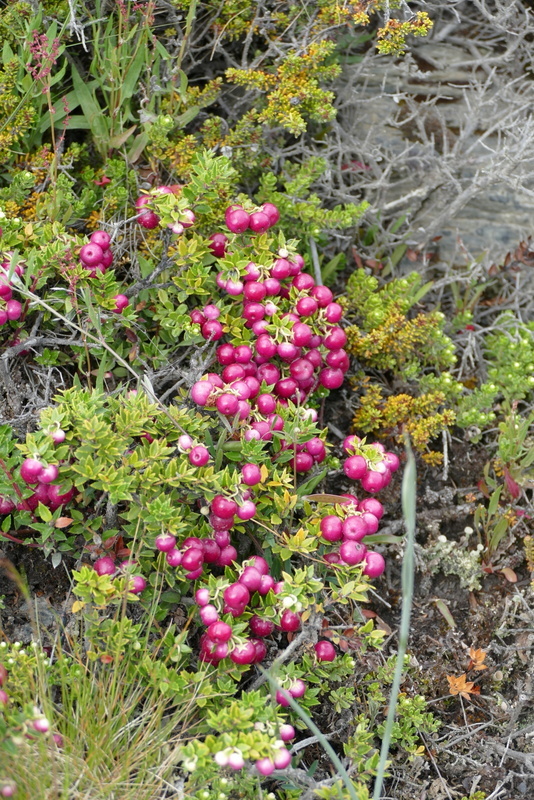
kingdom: Plantae
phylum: Tracheophyta
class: Magnoliopsida
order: Ericales
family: Ericaceae
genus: Gaultheria
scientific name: Gaultheria mucronata
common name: Prickly heath
